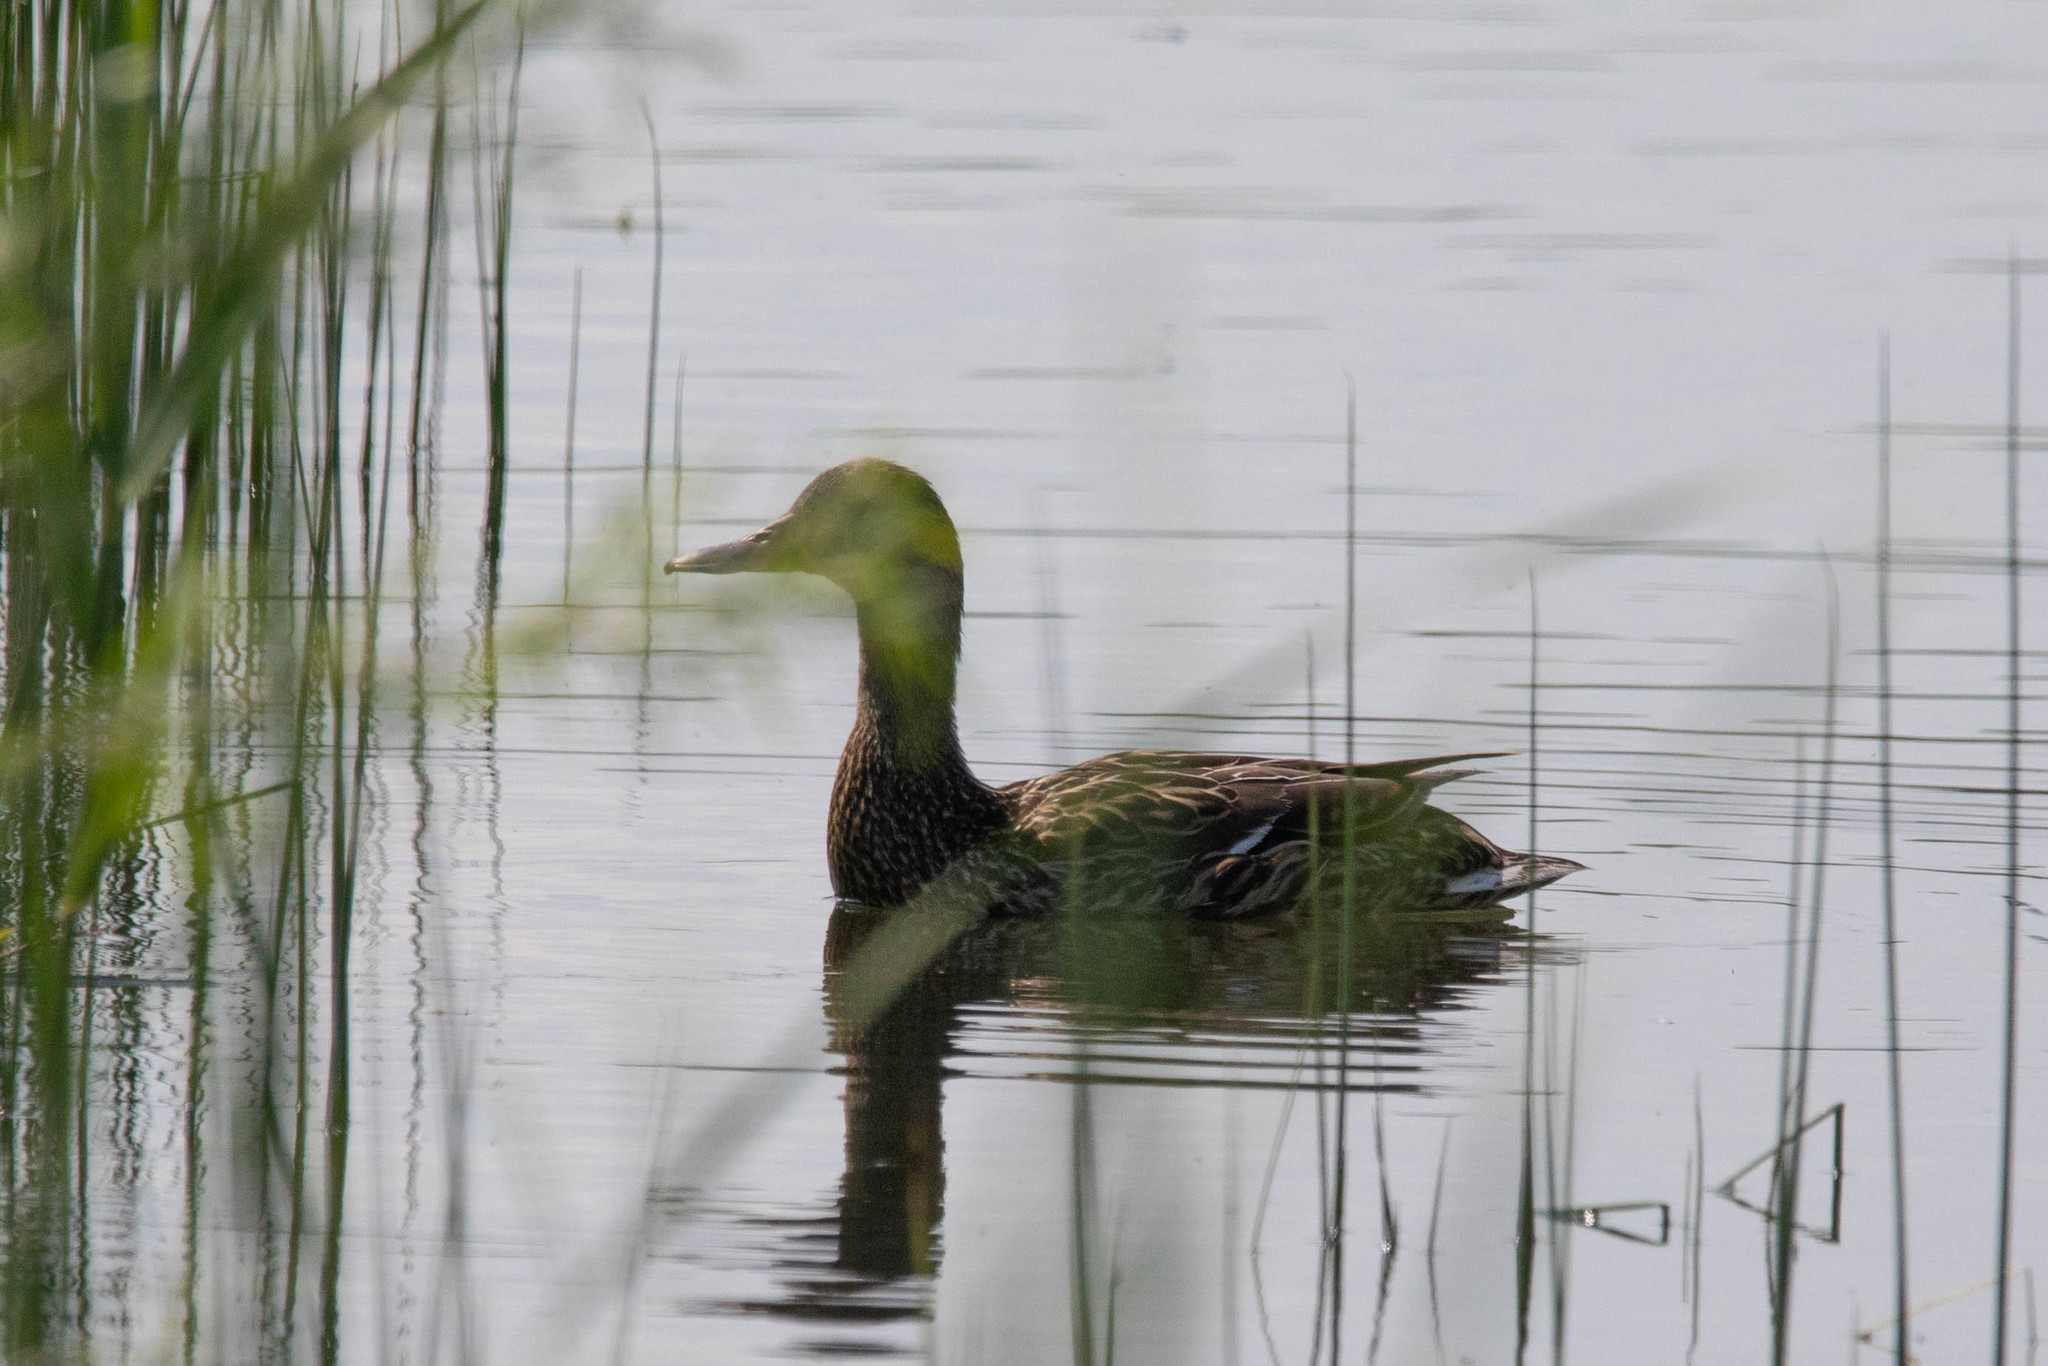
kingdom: Animalia
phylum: Chordata
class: Aves
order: Anseriformes
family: Anatidae
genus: Anas
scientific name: Anas platyrhynchos
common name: Mallard
